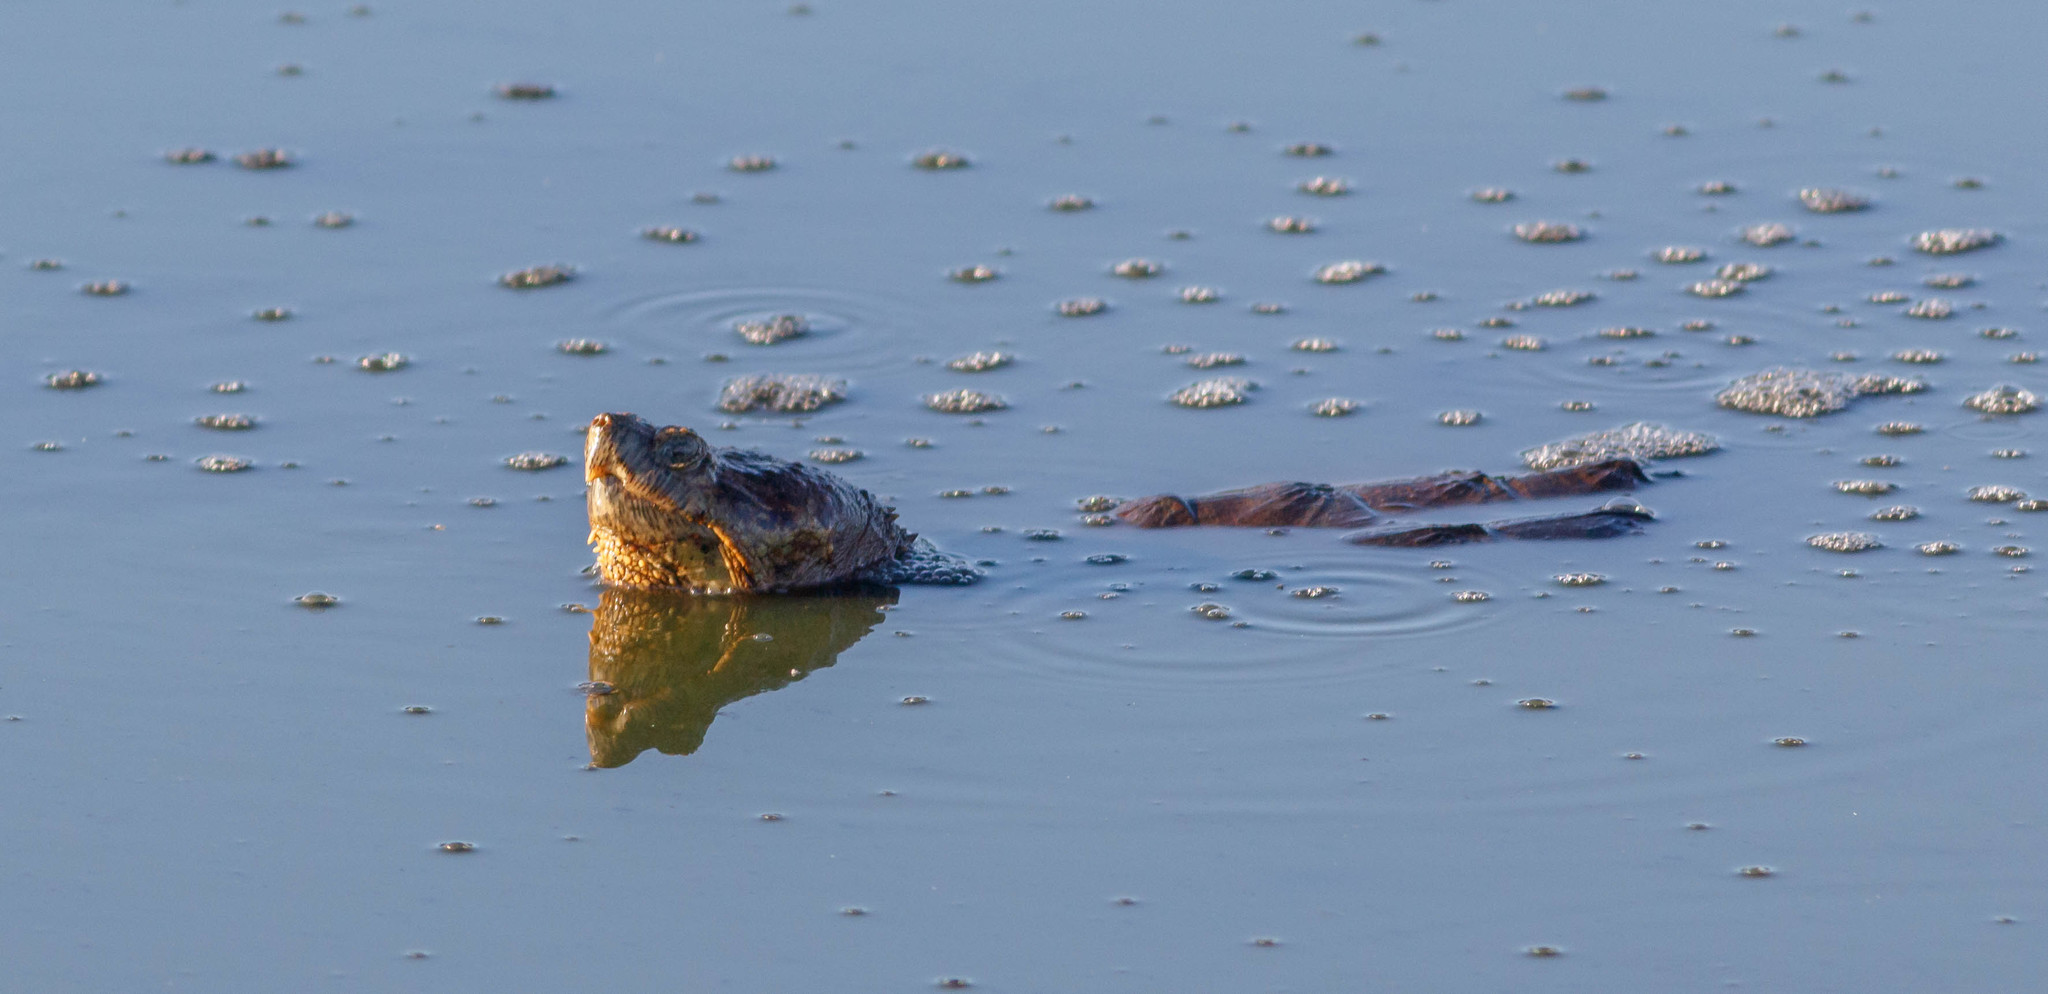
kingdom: Animalia
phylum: Chordata
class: Testudines
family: Chelydridae
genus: Chelydra
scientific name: Chelydra serpentina
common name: Common snapping turtle
